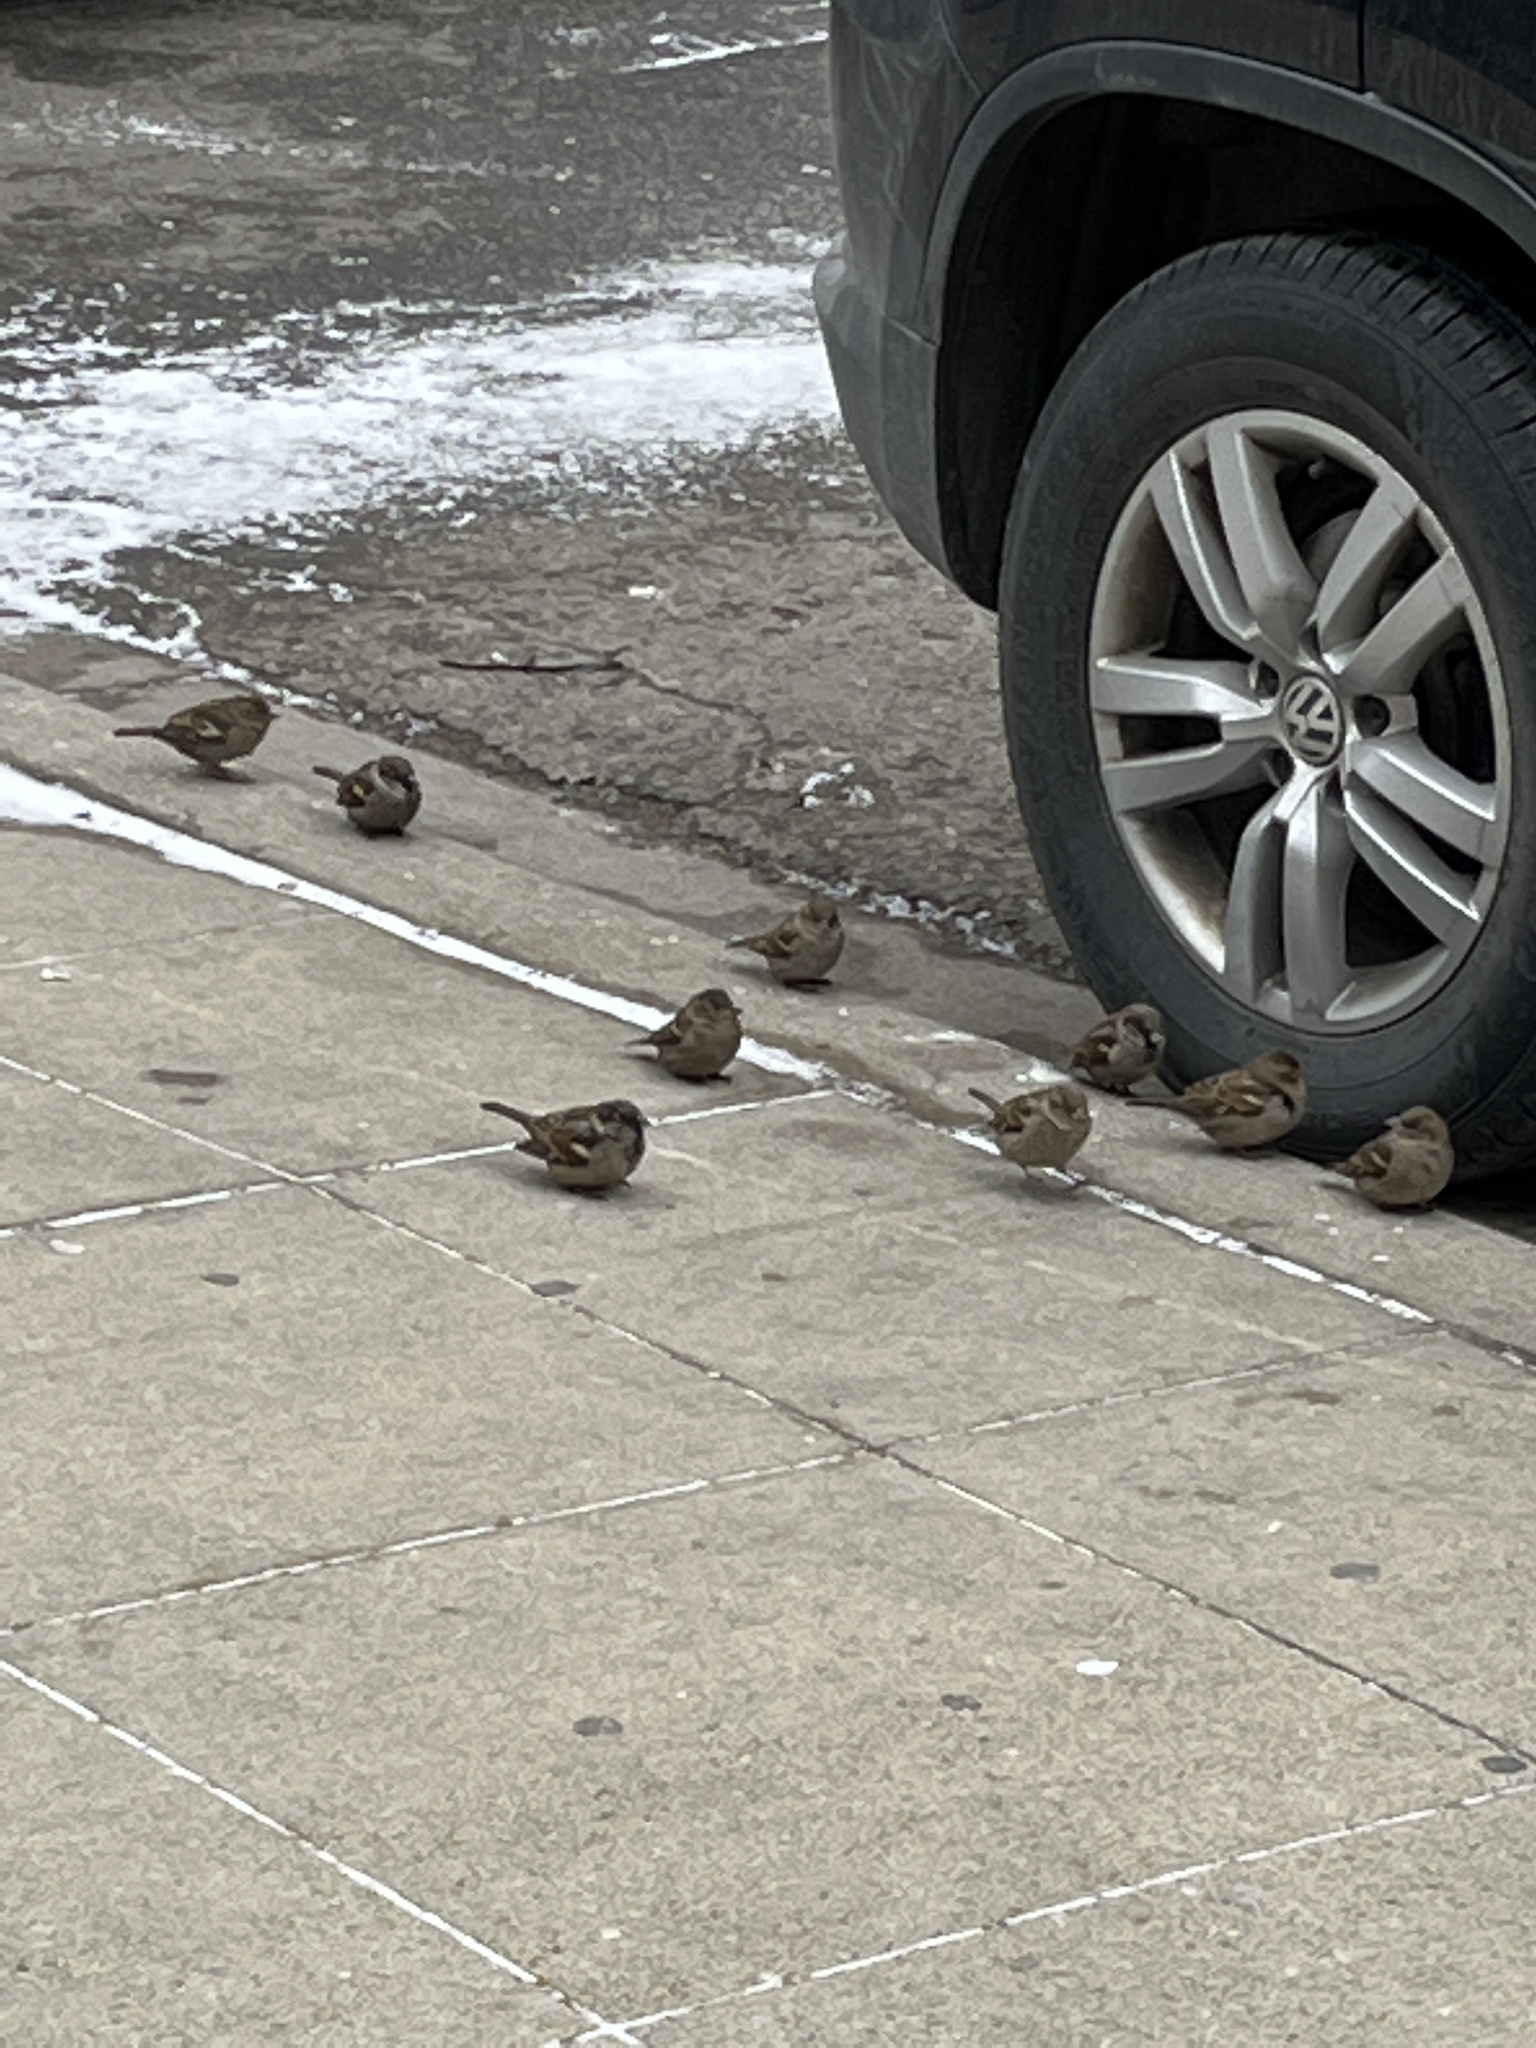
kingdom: Animalia
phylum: Chordata
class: Aves
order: Passeriformes
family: Passeridae
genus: Passer
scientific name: Passer domesticus
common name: House sparrow
